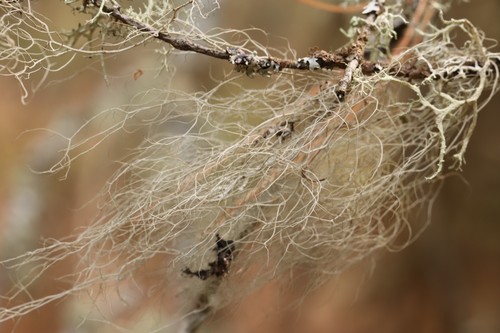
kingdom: Fungi
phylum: Ascomycota
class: Lecanoromycetes
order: Lecanorales
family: Parmeliaceae
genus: Bryoria
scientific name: Bryoria
